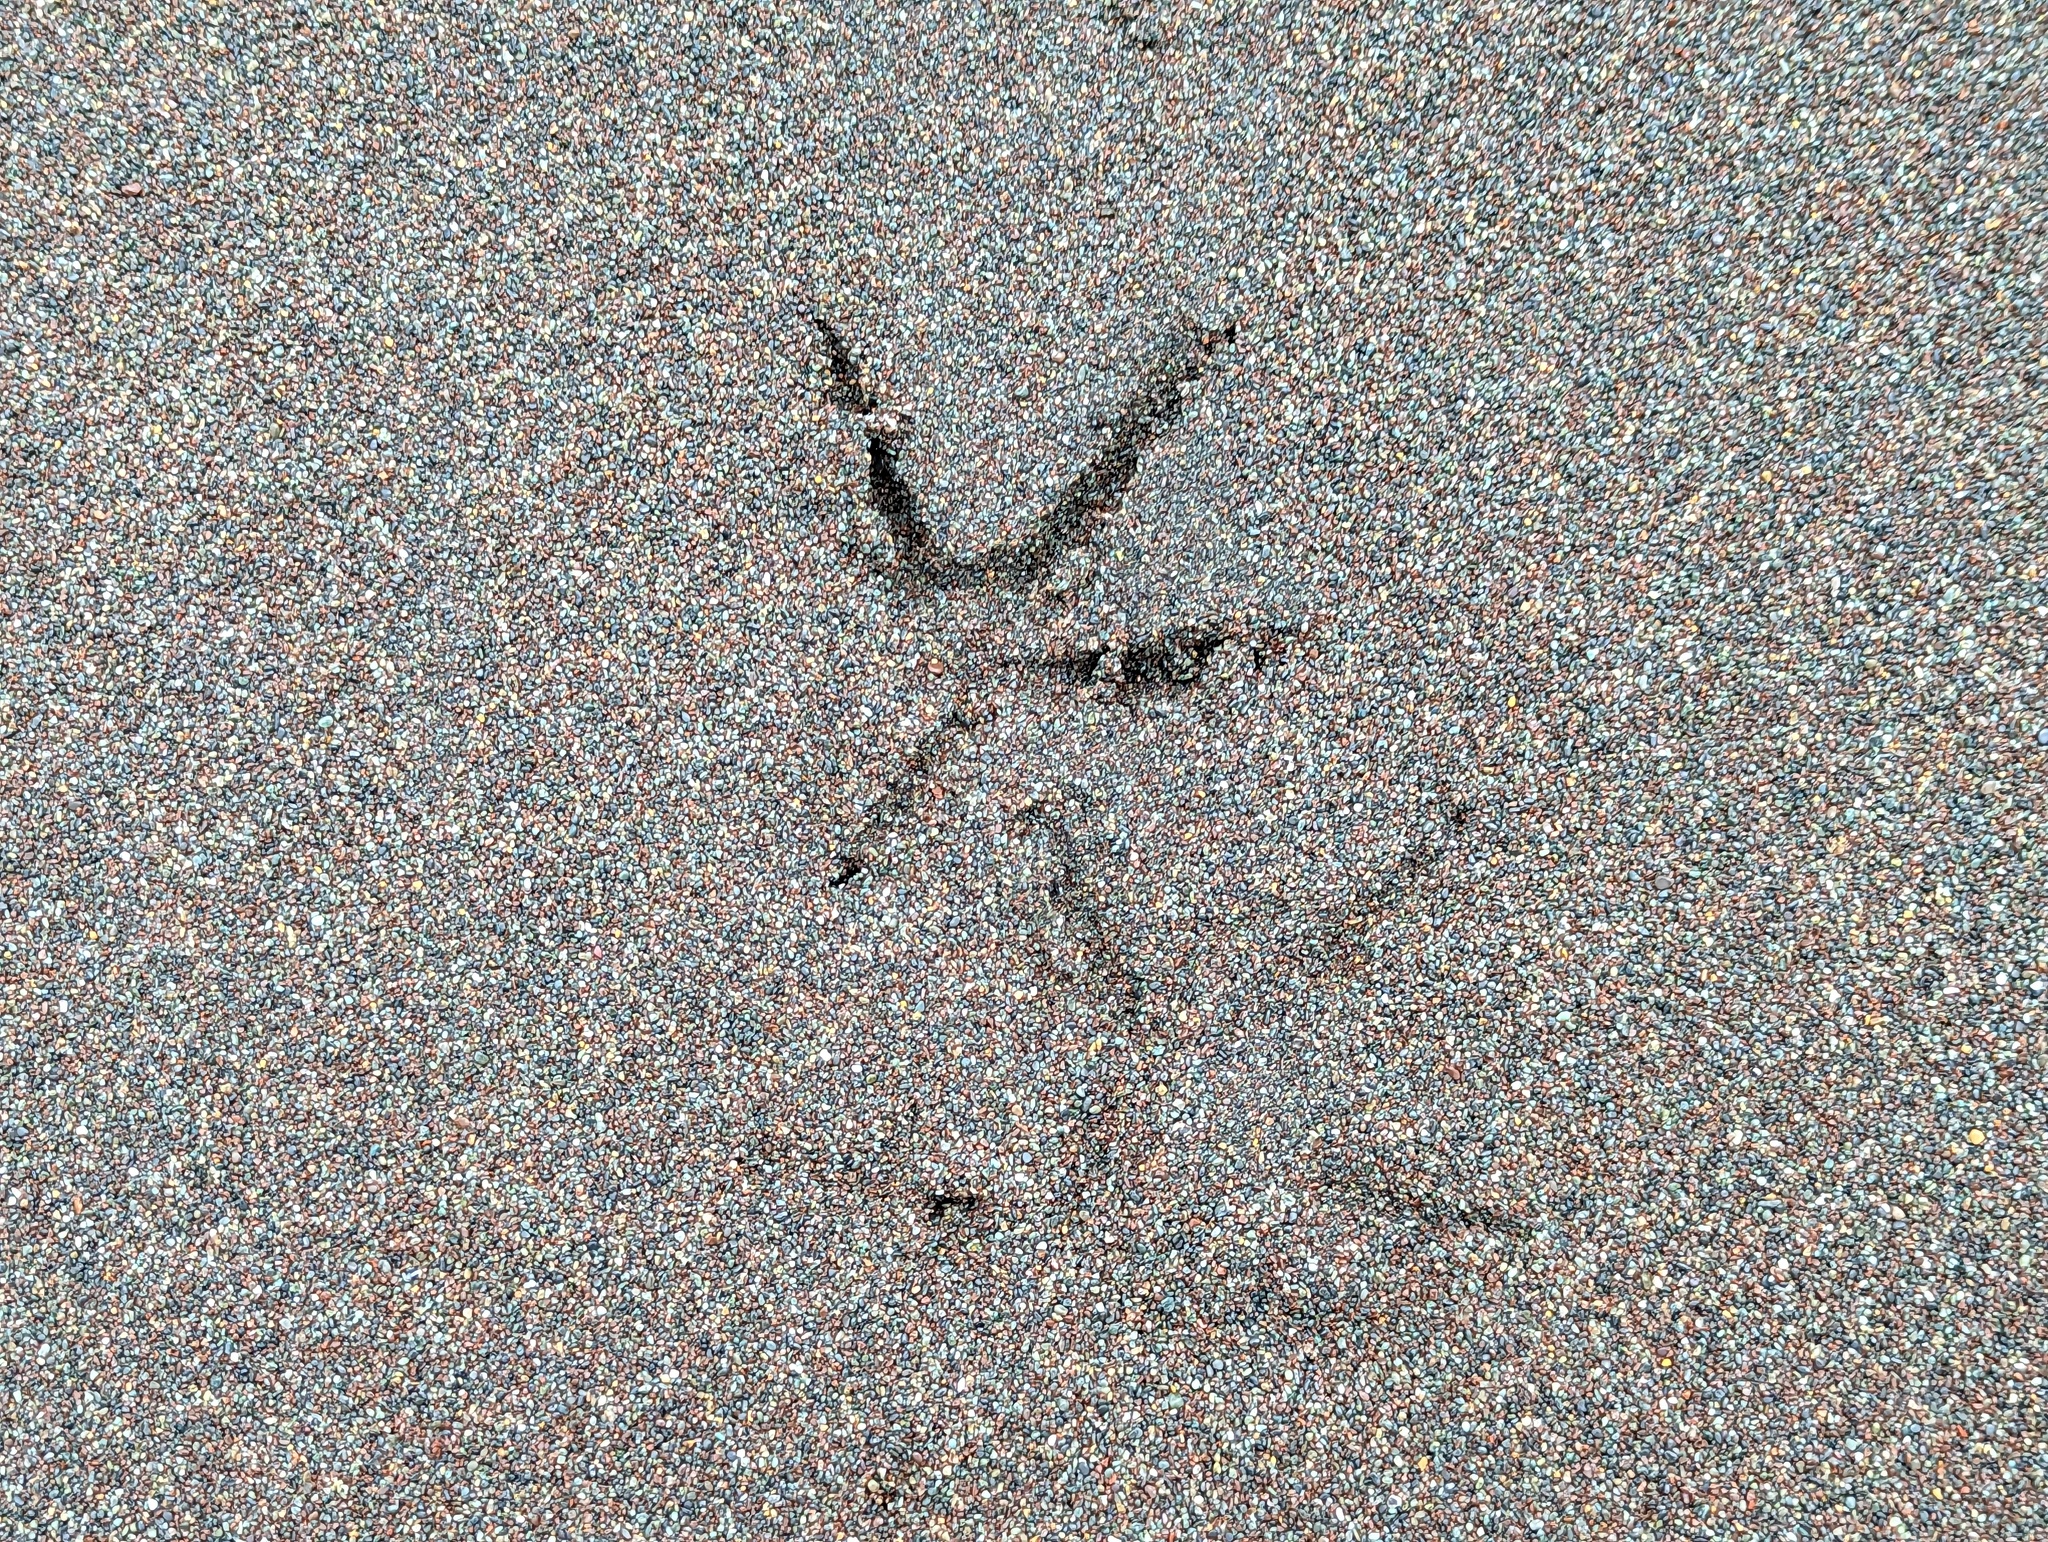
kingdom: Animalia
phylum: Chordata
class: Aves
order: Pelecaniformes
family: Ardeidae
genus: Egretta
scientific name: Egretta thula
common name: Snowy egret
